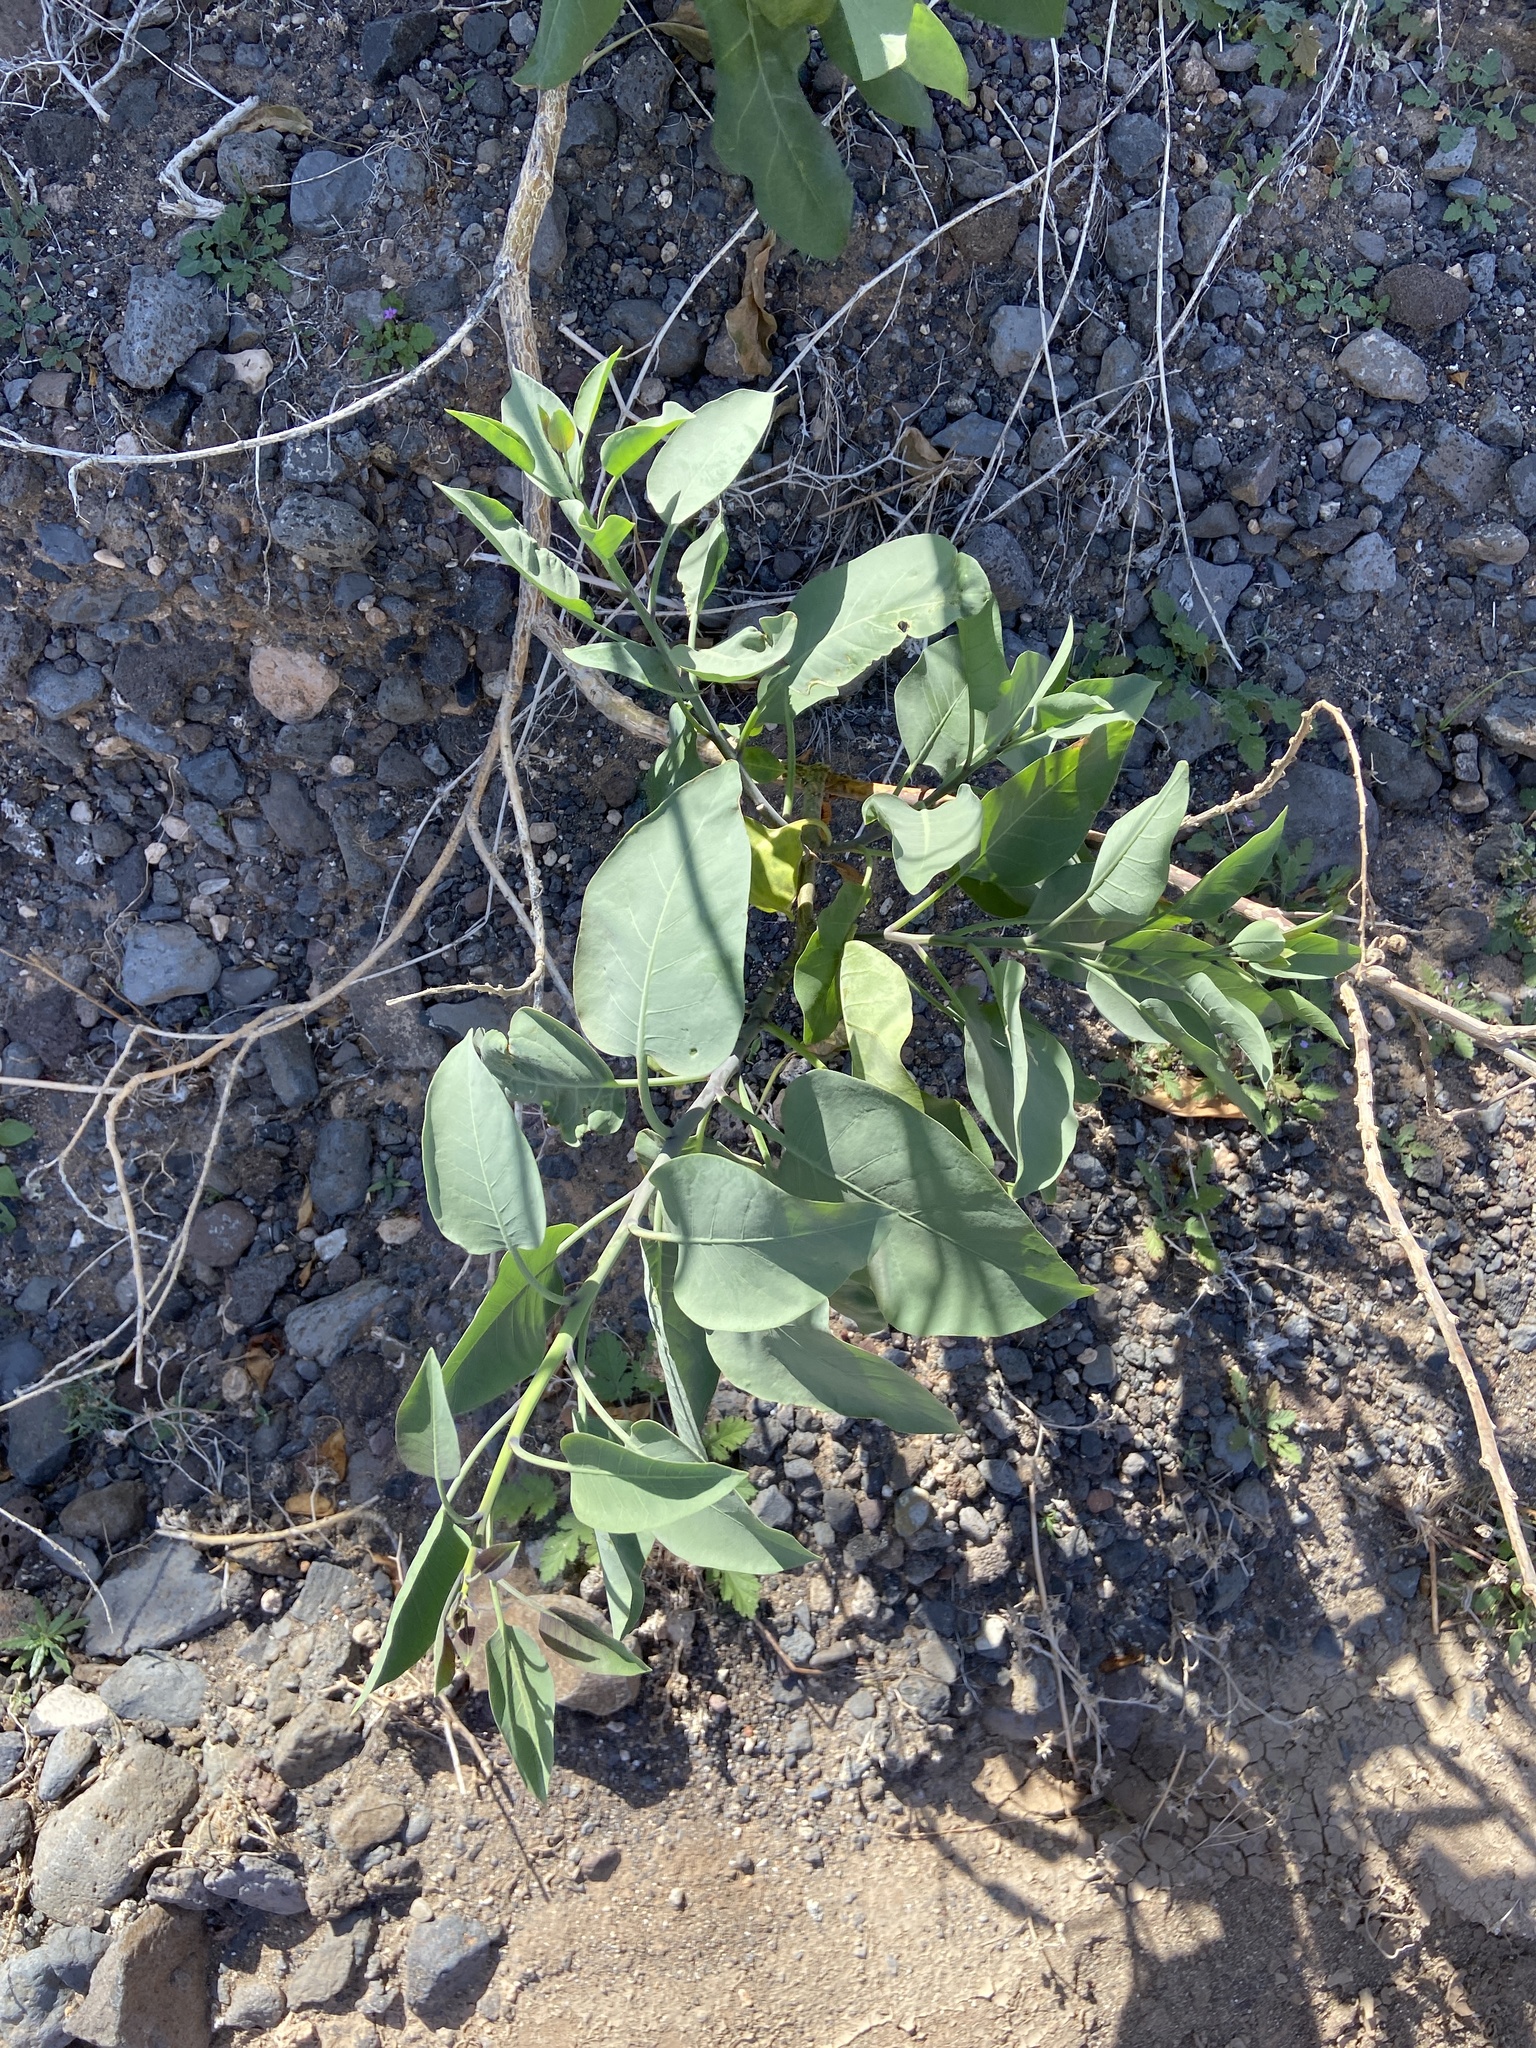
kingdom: Plantae
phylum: Tracheophyta
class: Magnoliopsida
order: Solanales
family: Solanaceae
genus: Nicotiana
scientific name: Nicotiana glauca
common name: Tree tobacco
